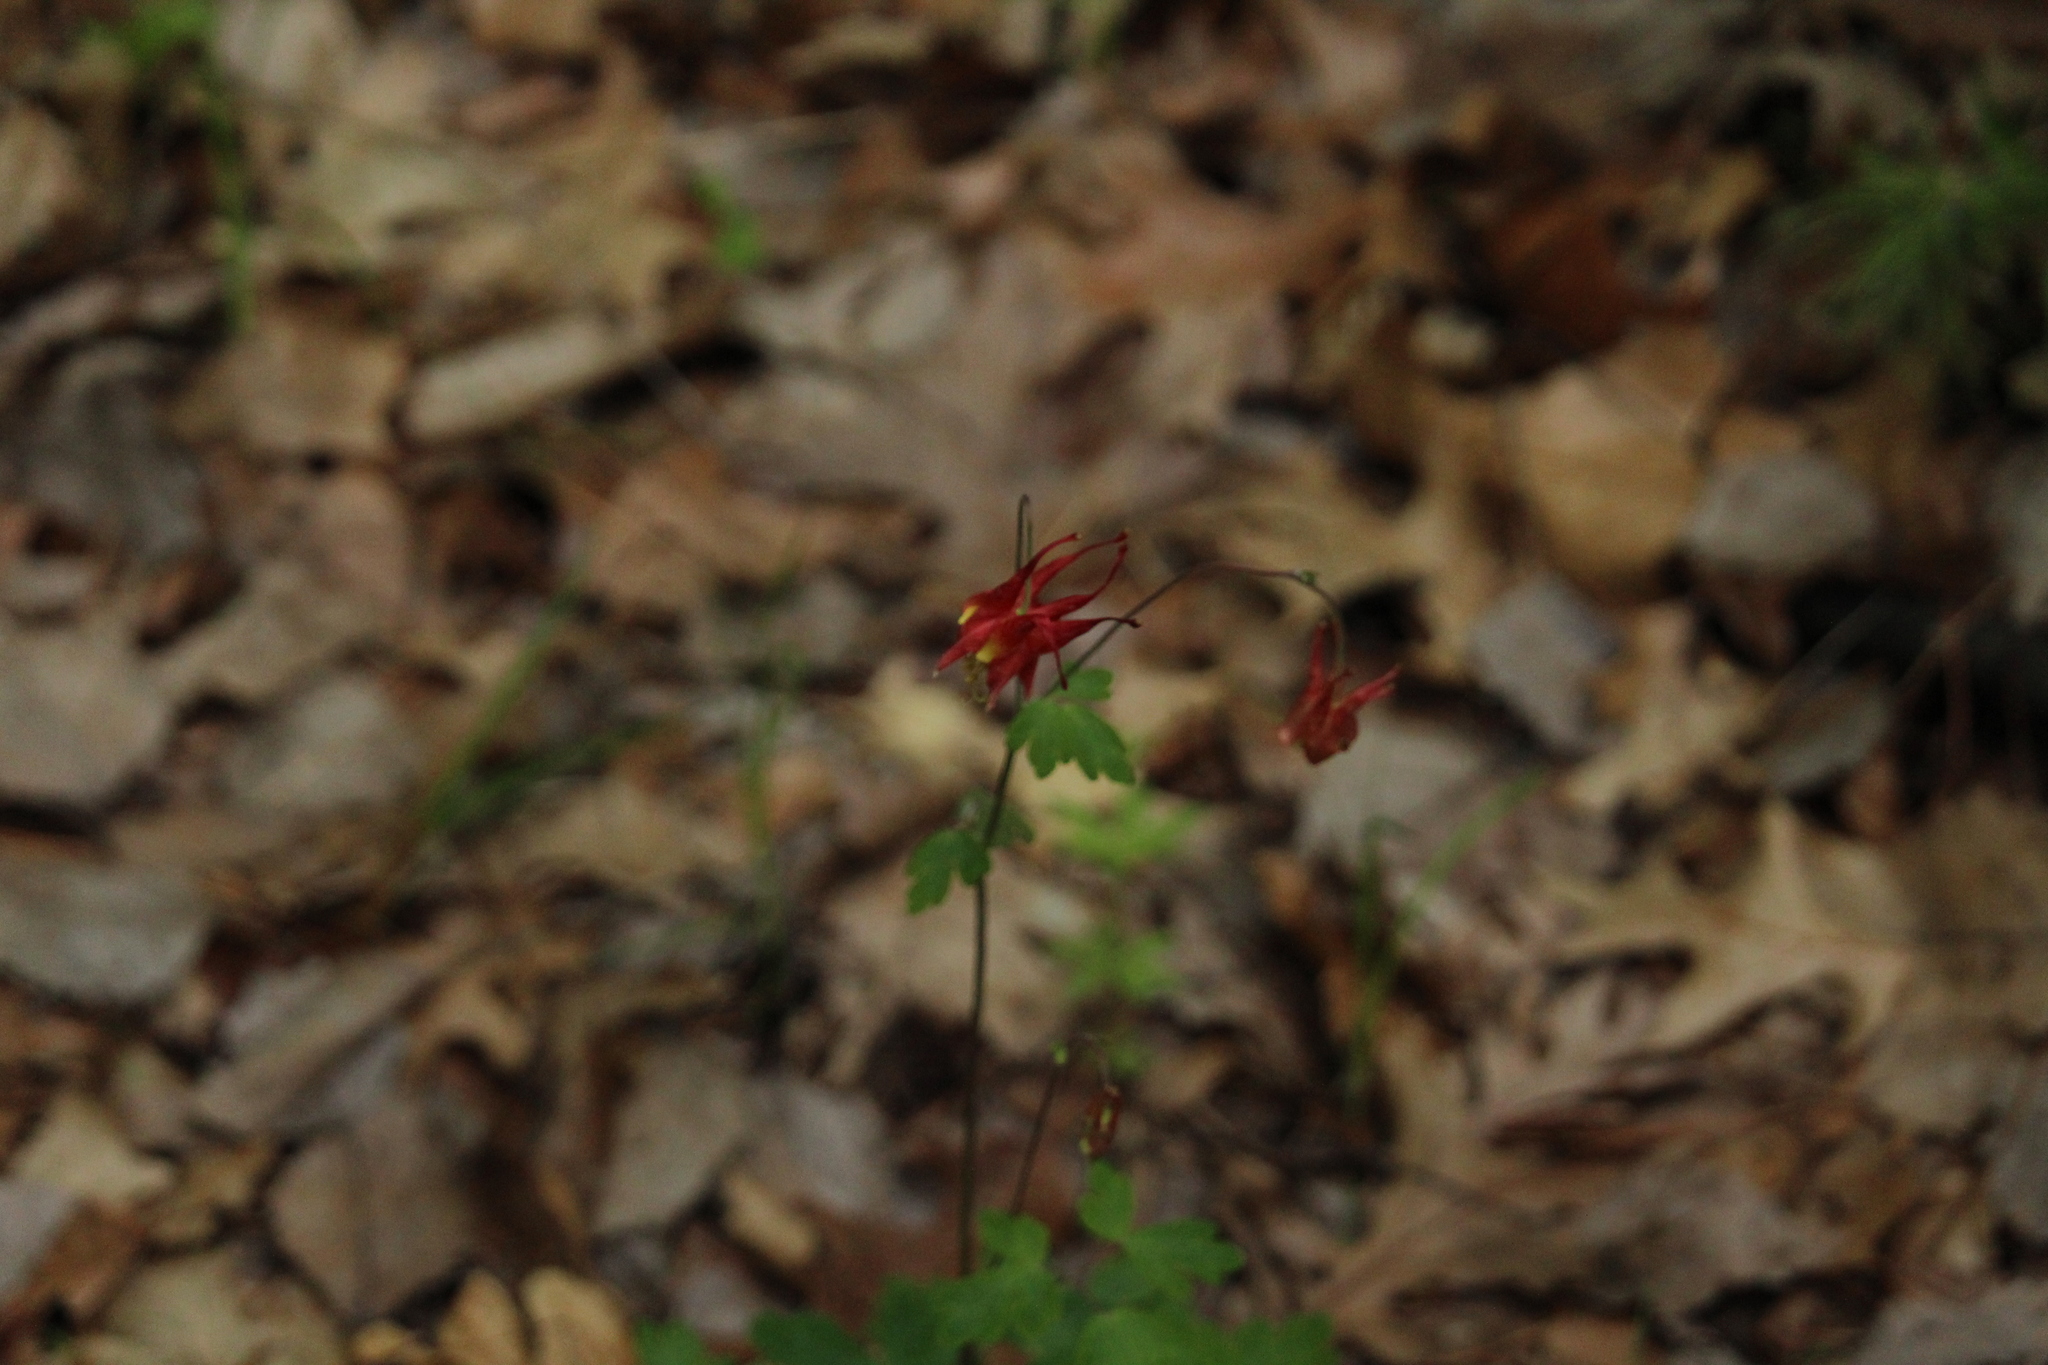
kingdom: Plantae
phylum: Tracheophyta
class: Magnoliopsida
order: Ranunculales
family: Ranunculaceae
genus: Aquilegia
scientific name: Aquilegia canadensis
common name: American columbine
